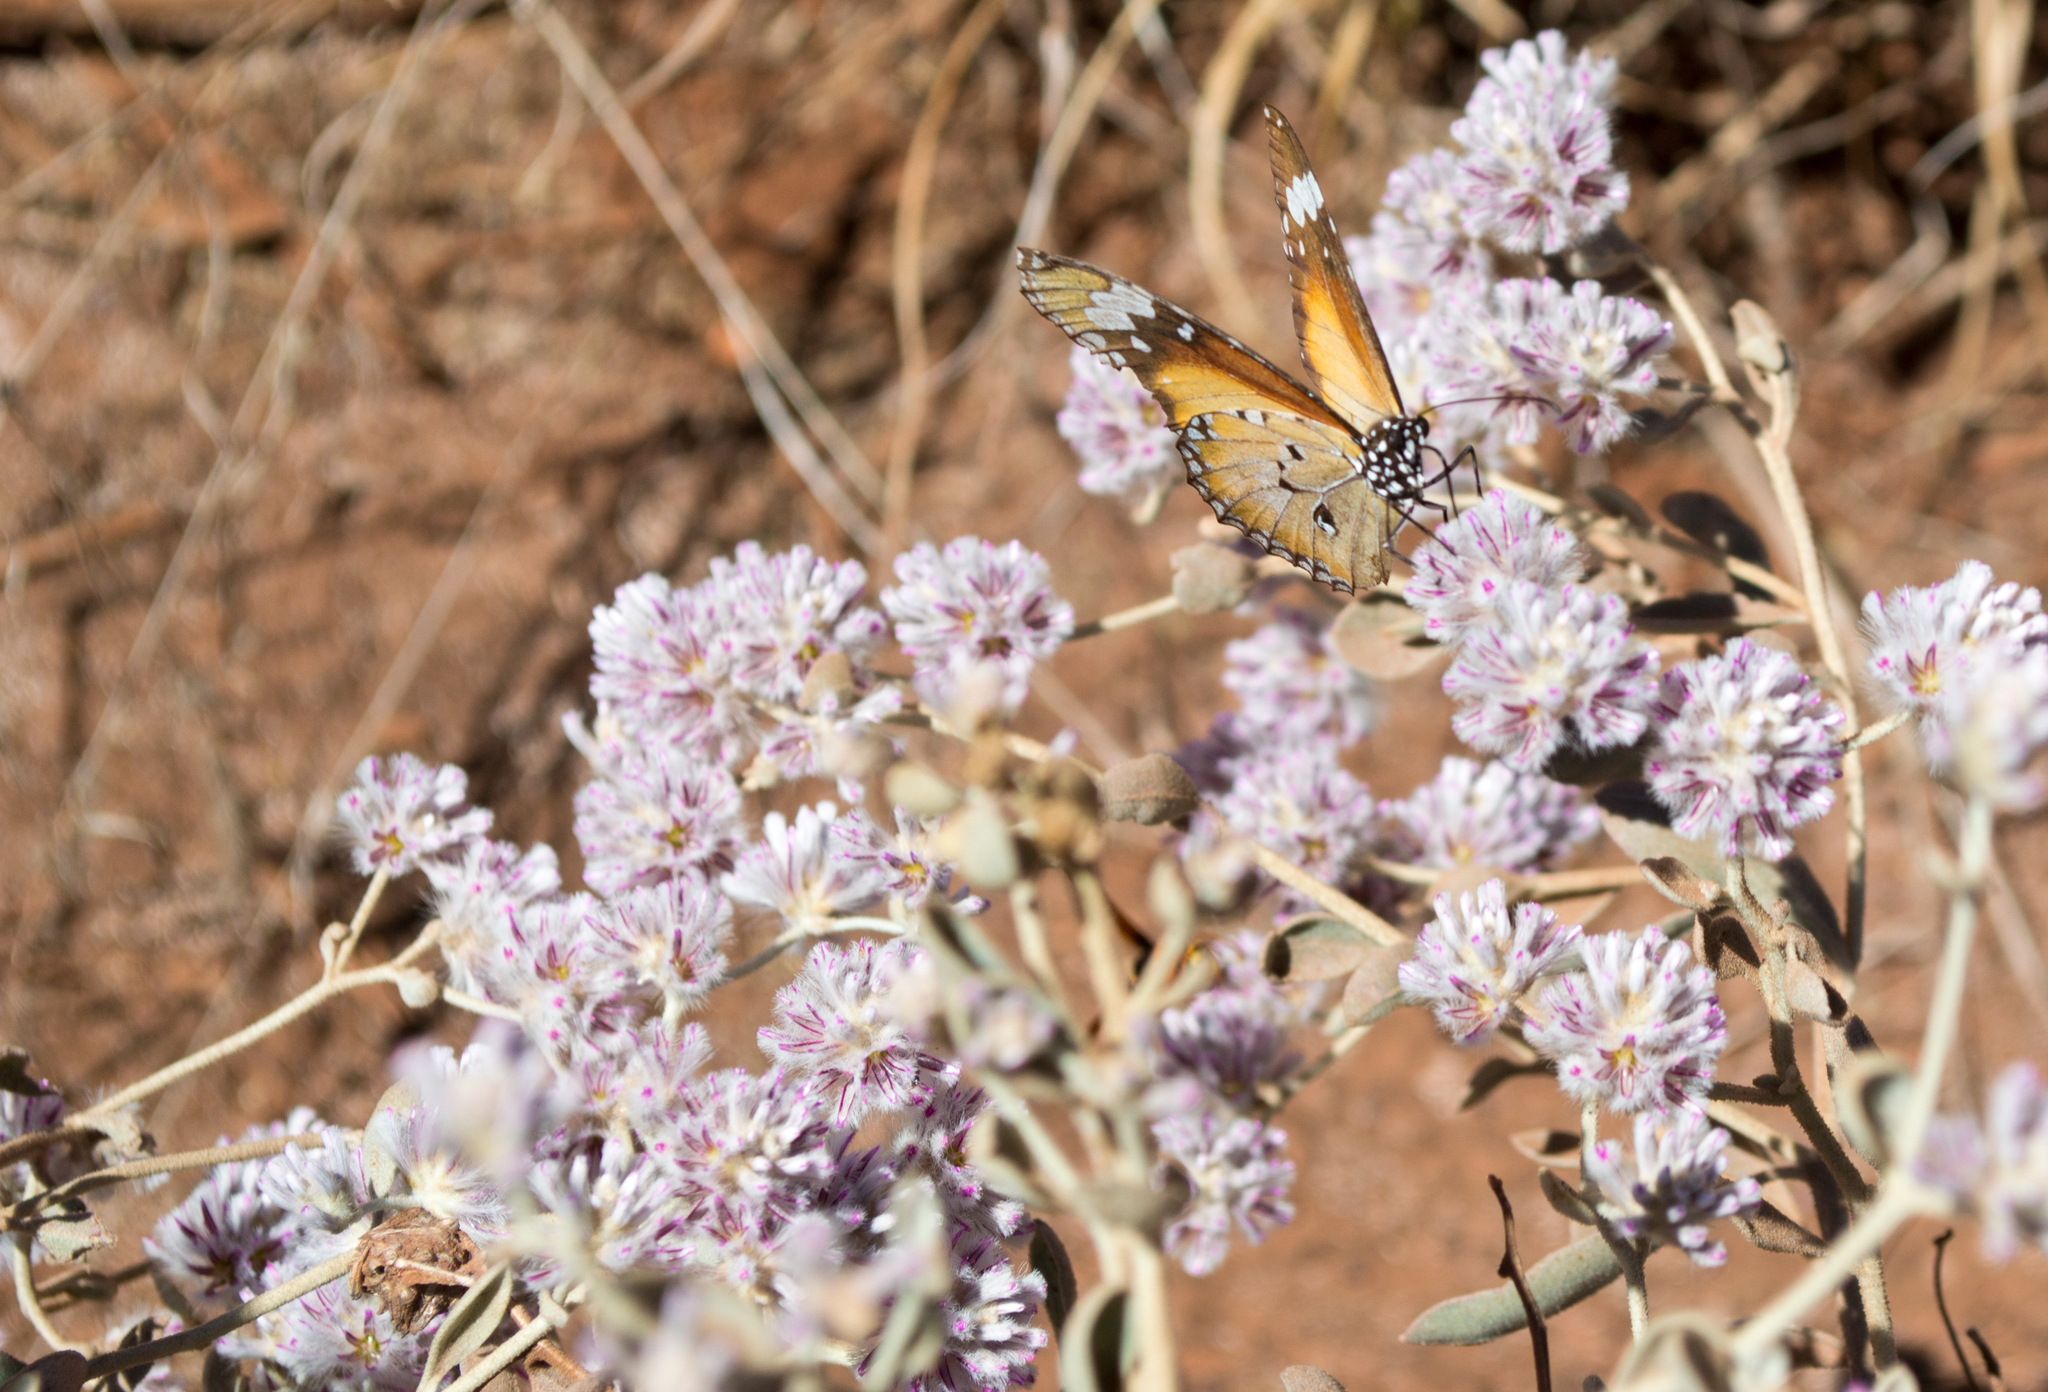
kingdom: Animalia
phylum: Arthropoda
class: Insecta
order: Lepidoptera
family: Nymphalidae
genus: Danaus
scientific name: Danaus chrysippus
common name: Plain tiger
